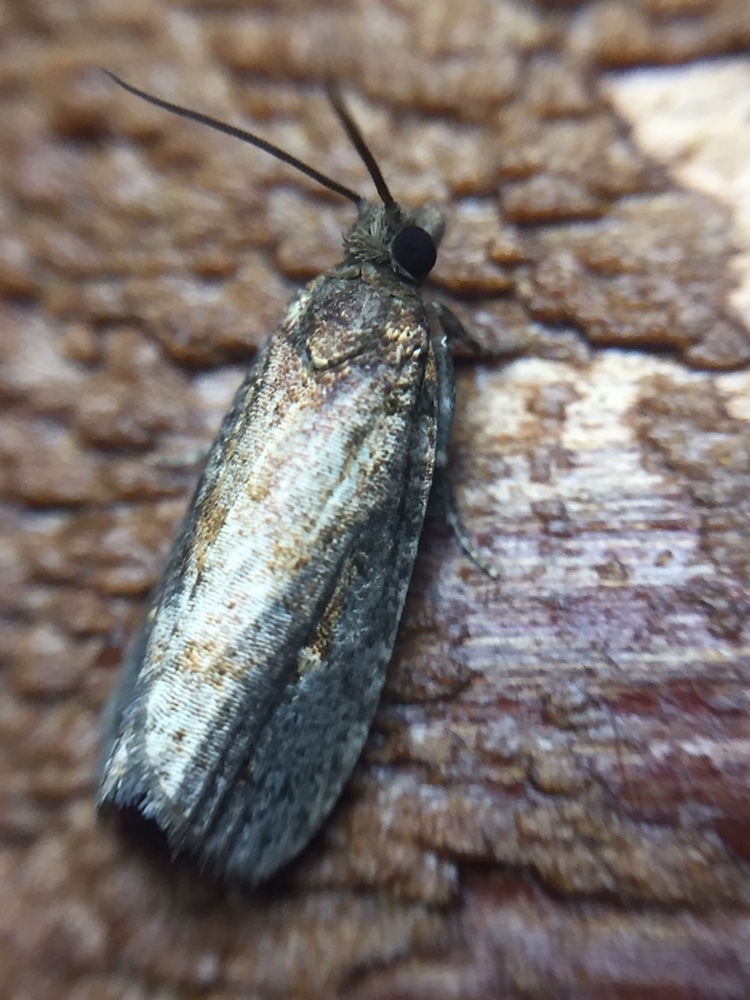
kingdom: Animalia
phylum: Arthropoda
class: Insecta
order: Lepidoptera
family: Tortricidae
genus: Cryptaspasma
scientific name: Cryptaspasma querula
